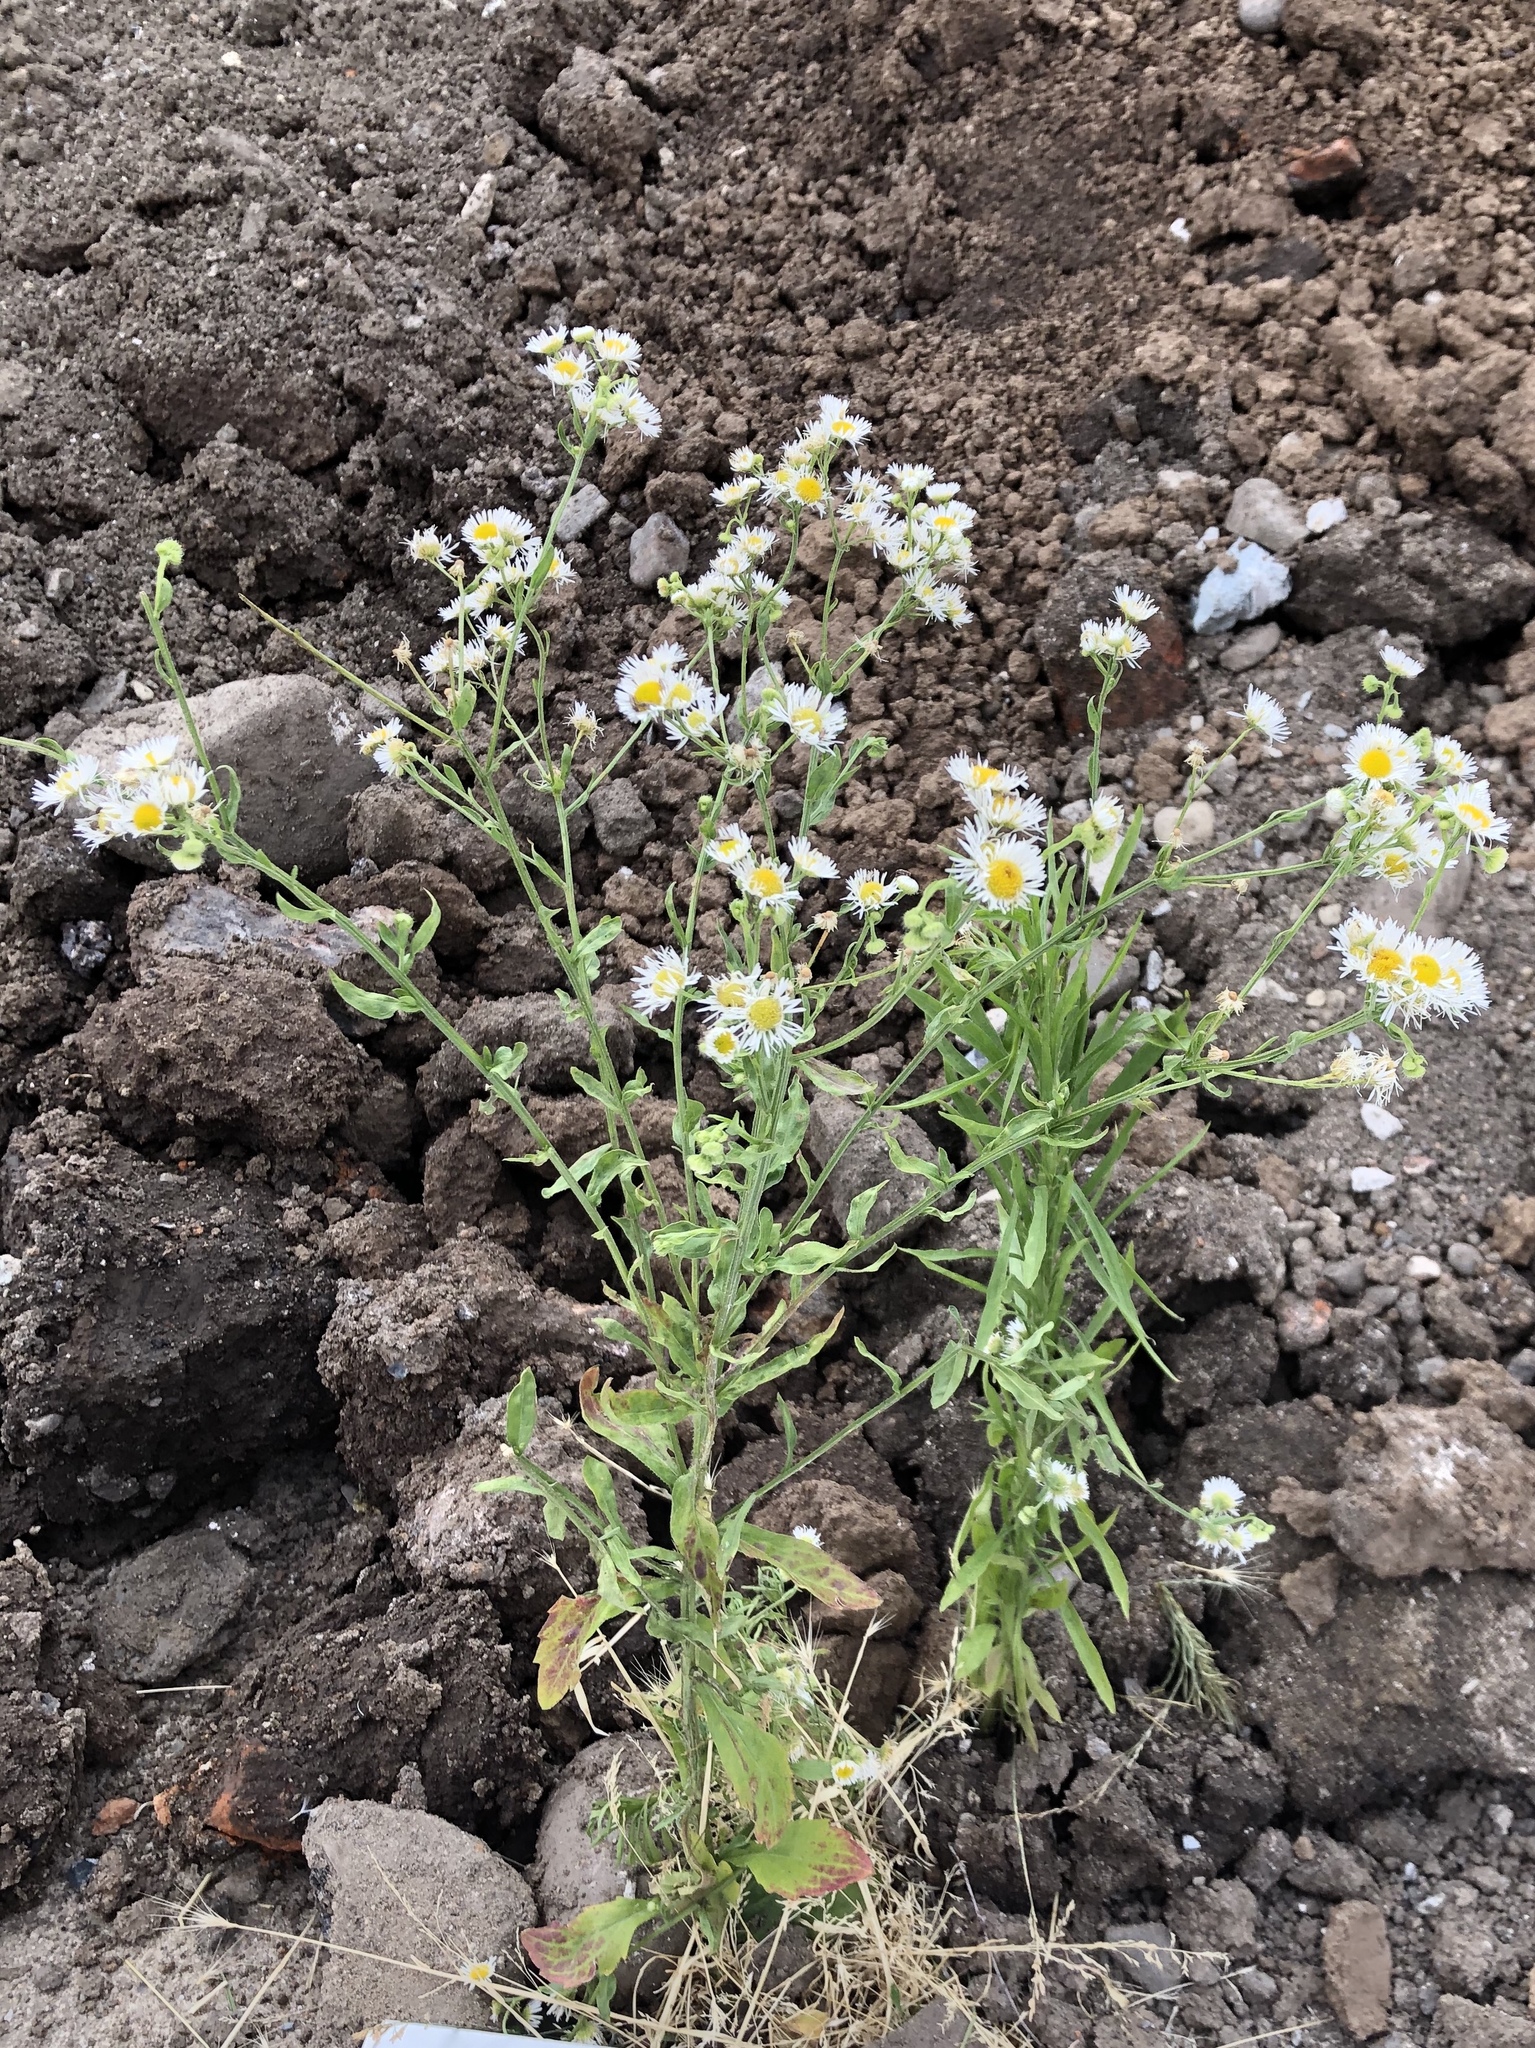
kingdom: Plantae
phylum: Tracheophyta
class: Magnoliopsida
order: Asterales
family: Asteraceae
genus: Erigeron
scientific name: Erigeron annuus
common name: Tall fleabane
